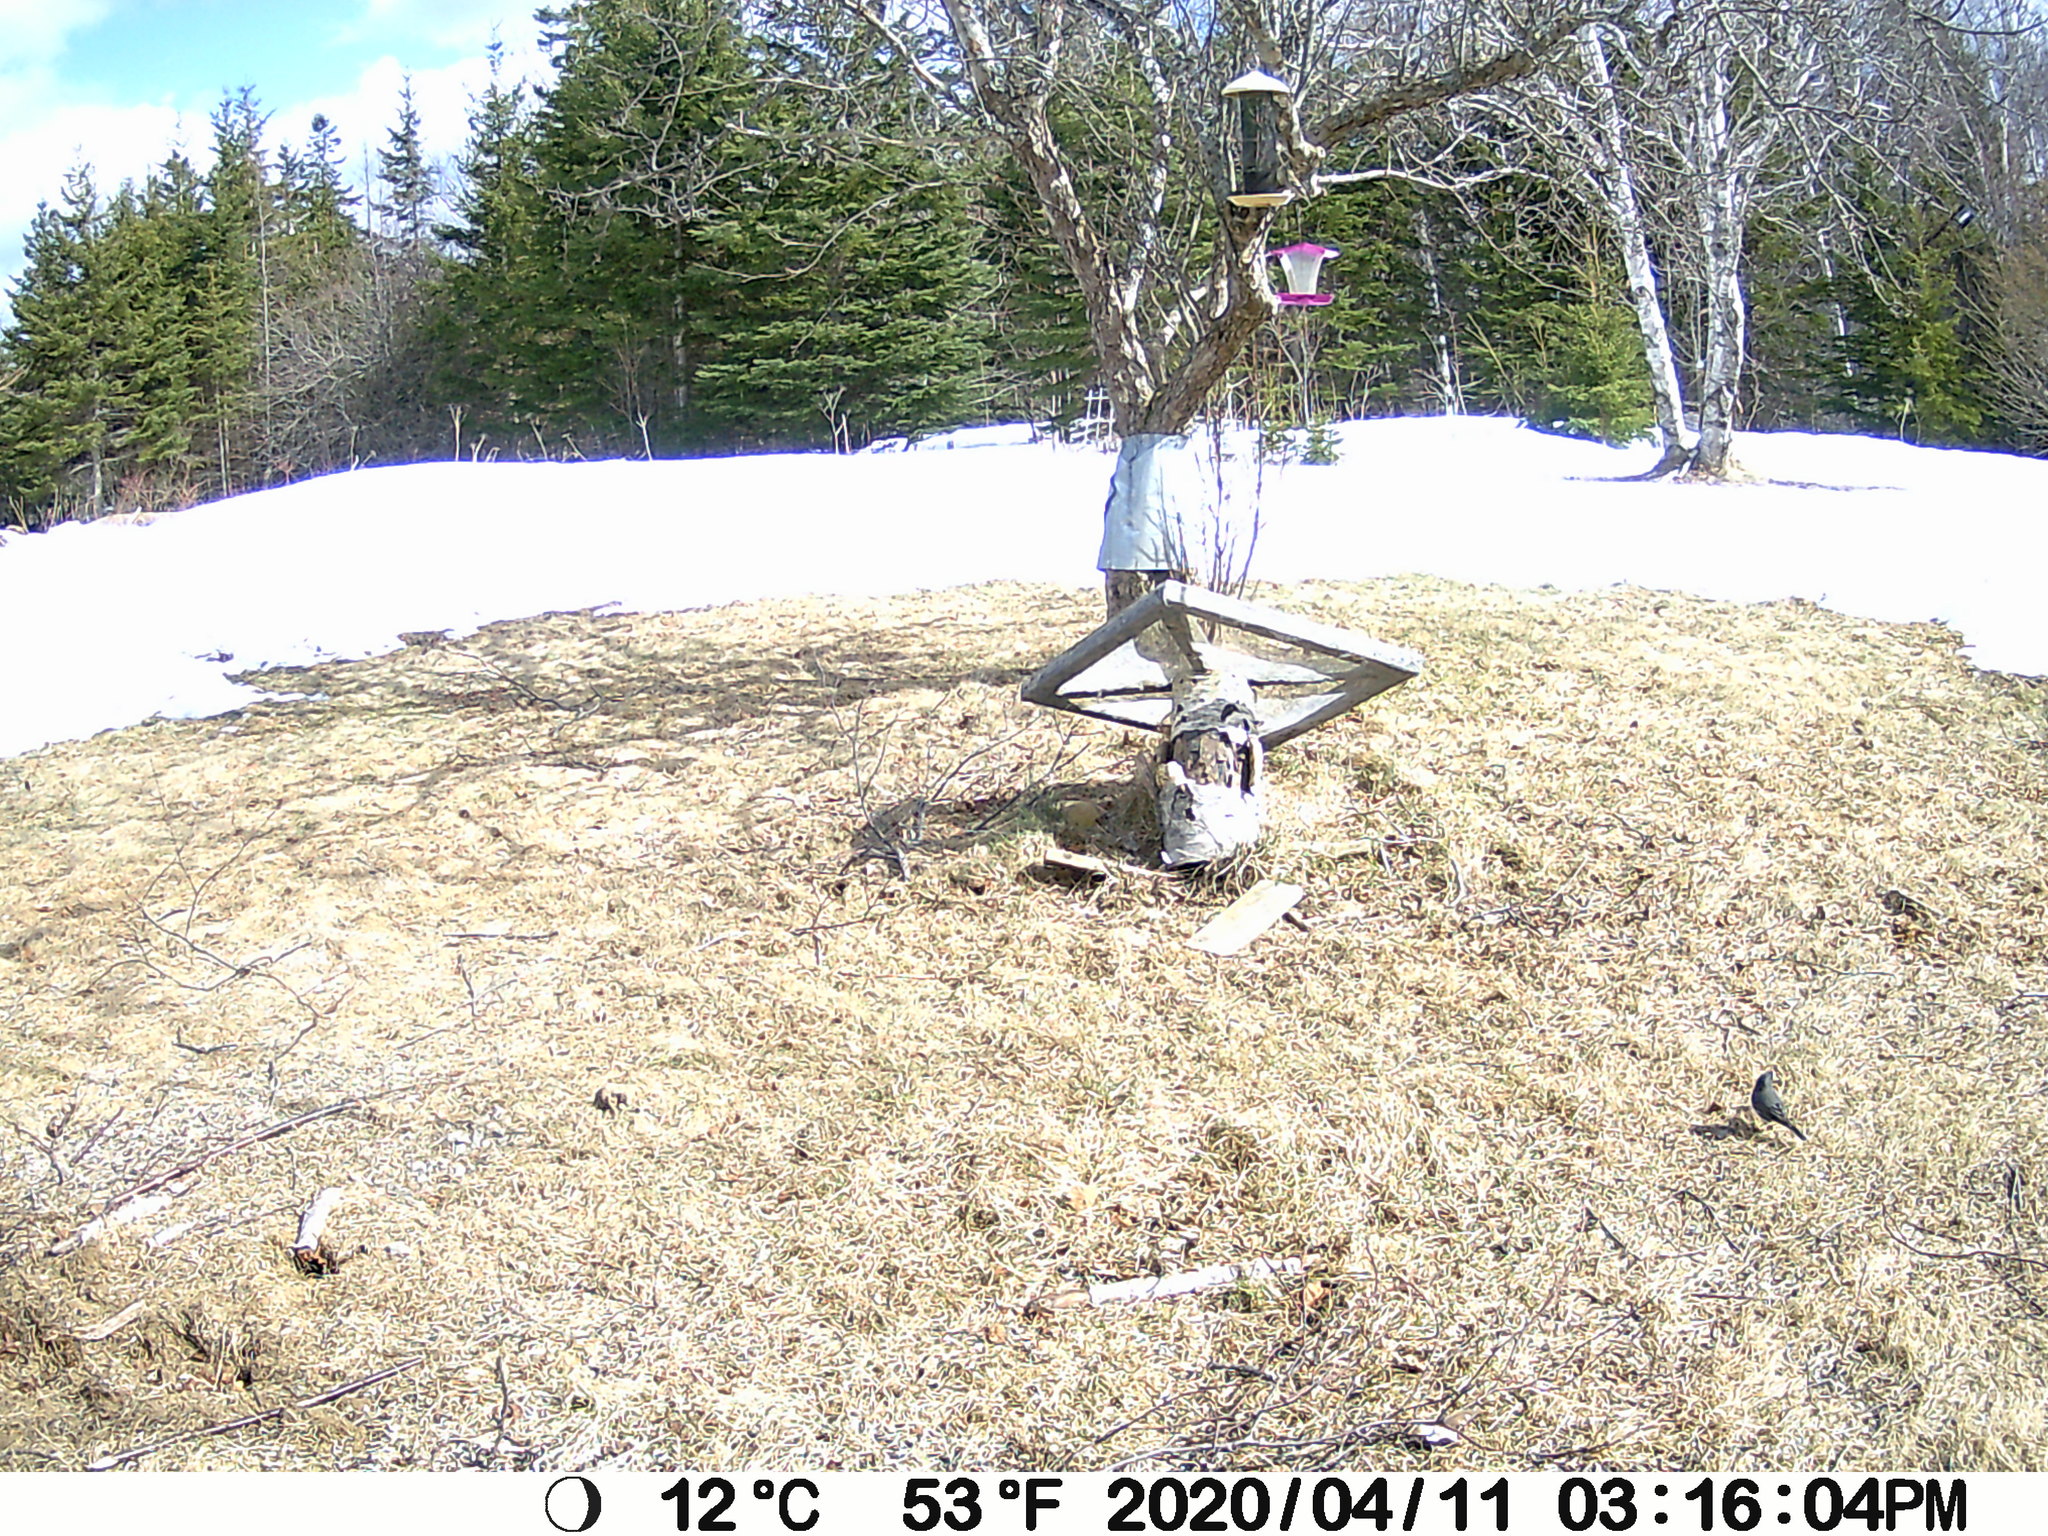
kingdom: Animalia
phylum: Chordata
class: Aves
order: Passeriformes
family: Passerellidae
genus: Junco
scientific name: Junco hyemalis
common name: Dark-eyed junco
